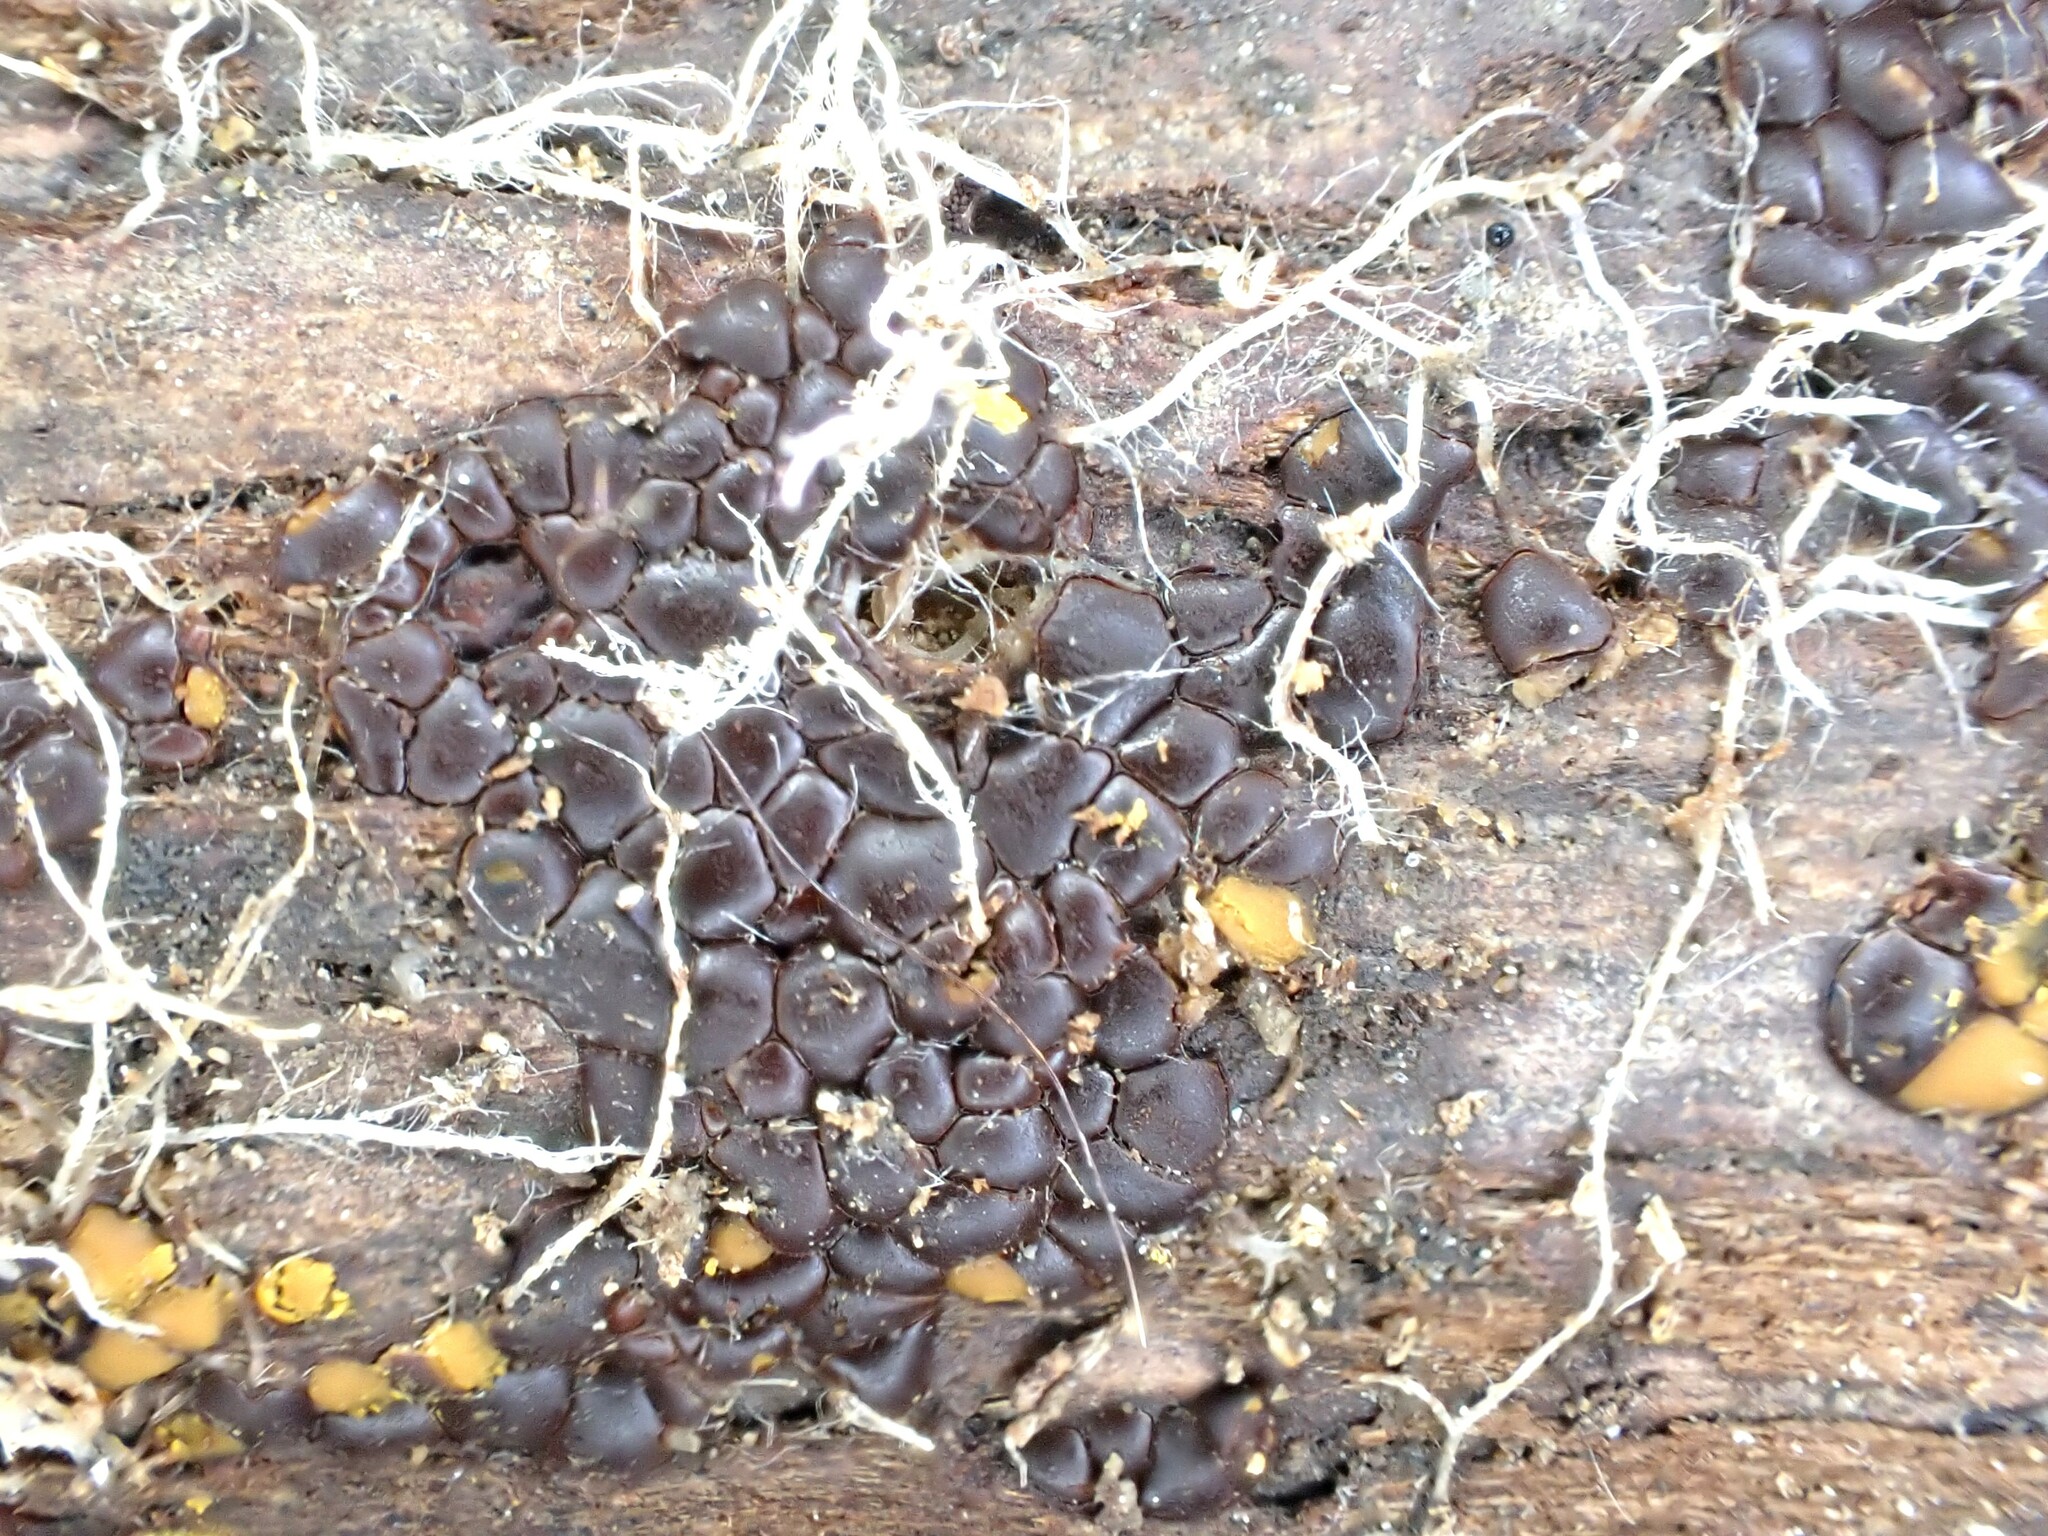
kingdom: Protozoa
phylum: Mycetozoa
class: Myxomycetes
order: Trichiales
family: Trichiaceae
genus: Perichaena
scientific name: Perichaena depressa
